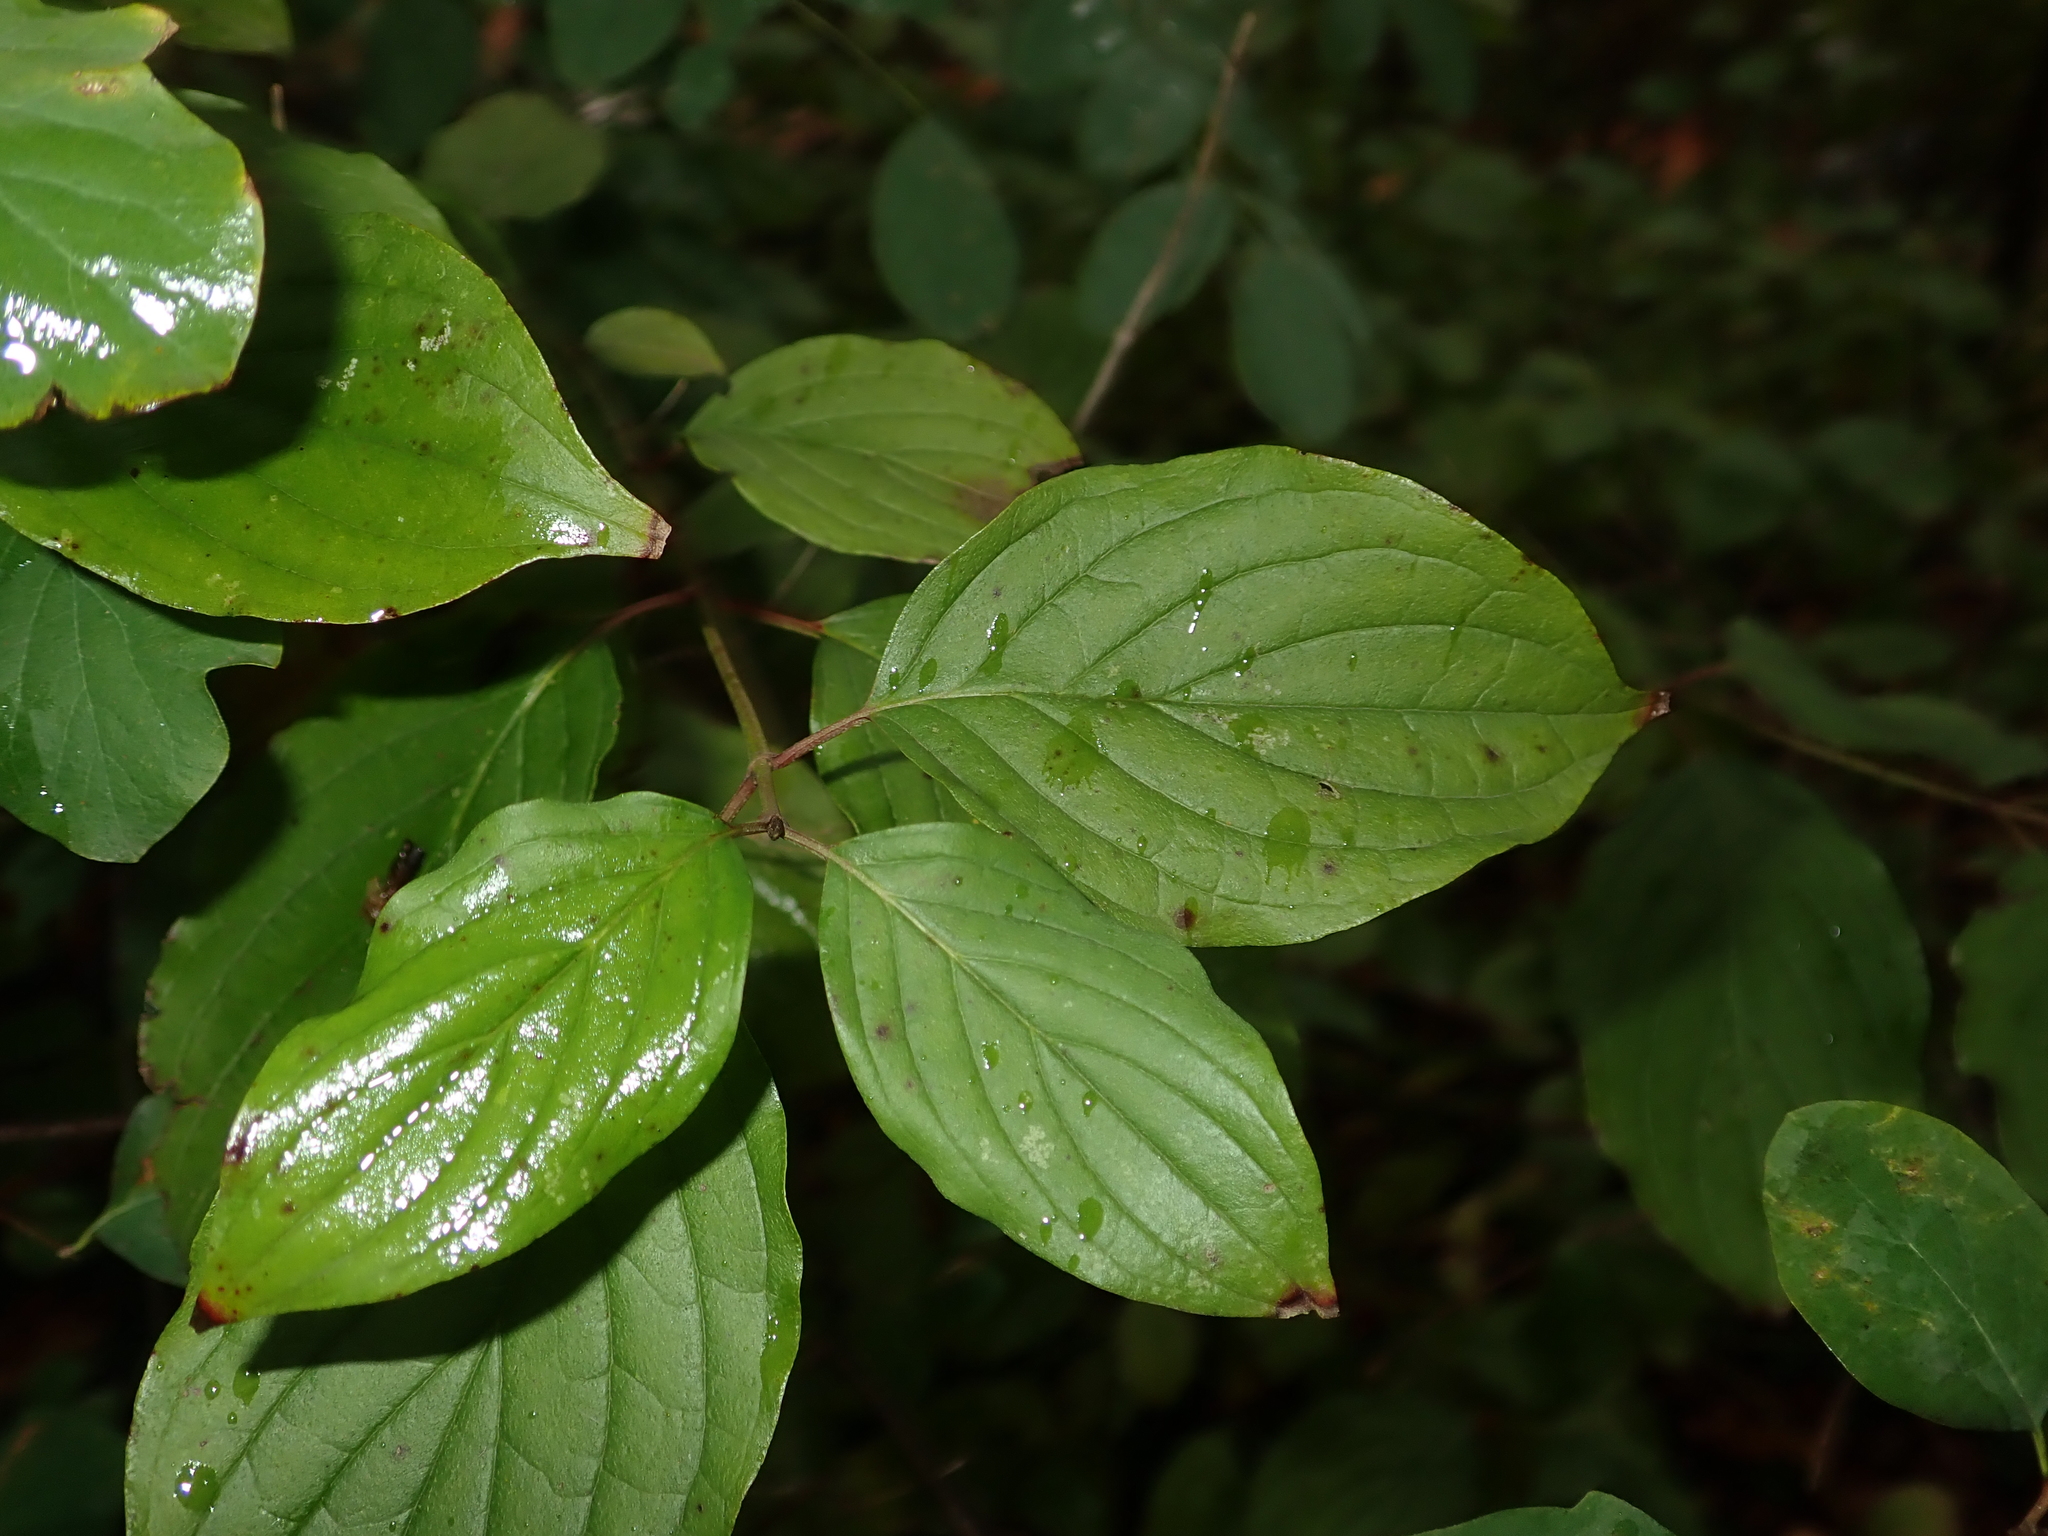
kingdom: Plantae
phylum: Tracheophyta
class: Magnoliopsida
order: Cornales
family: Cornaceae
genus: Cornus
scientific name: Cornus sanguinea
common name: Dogwood
